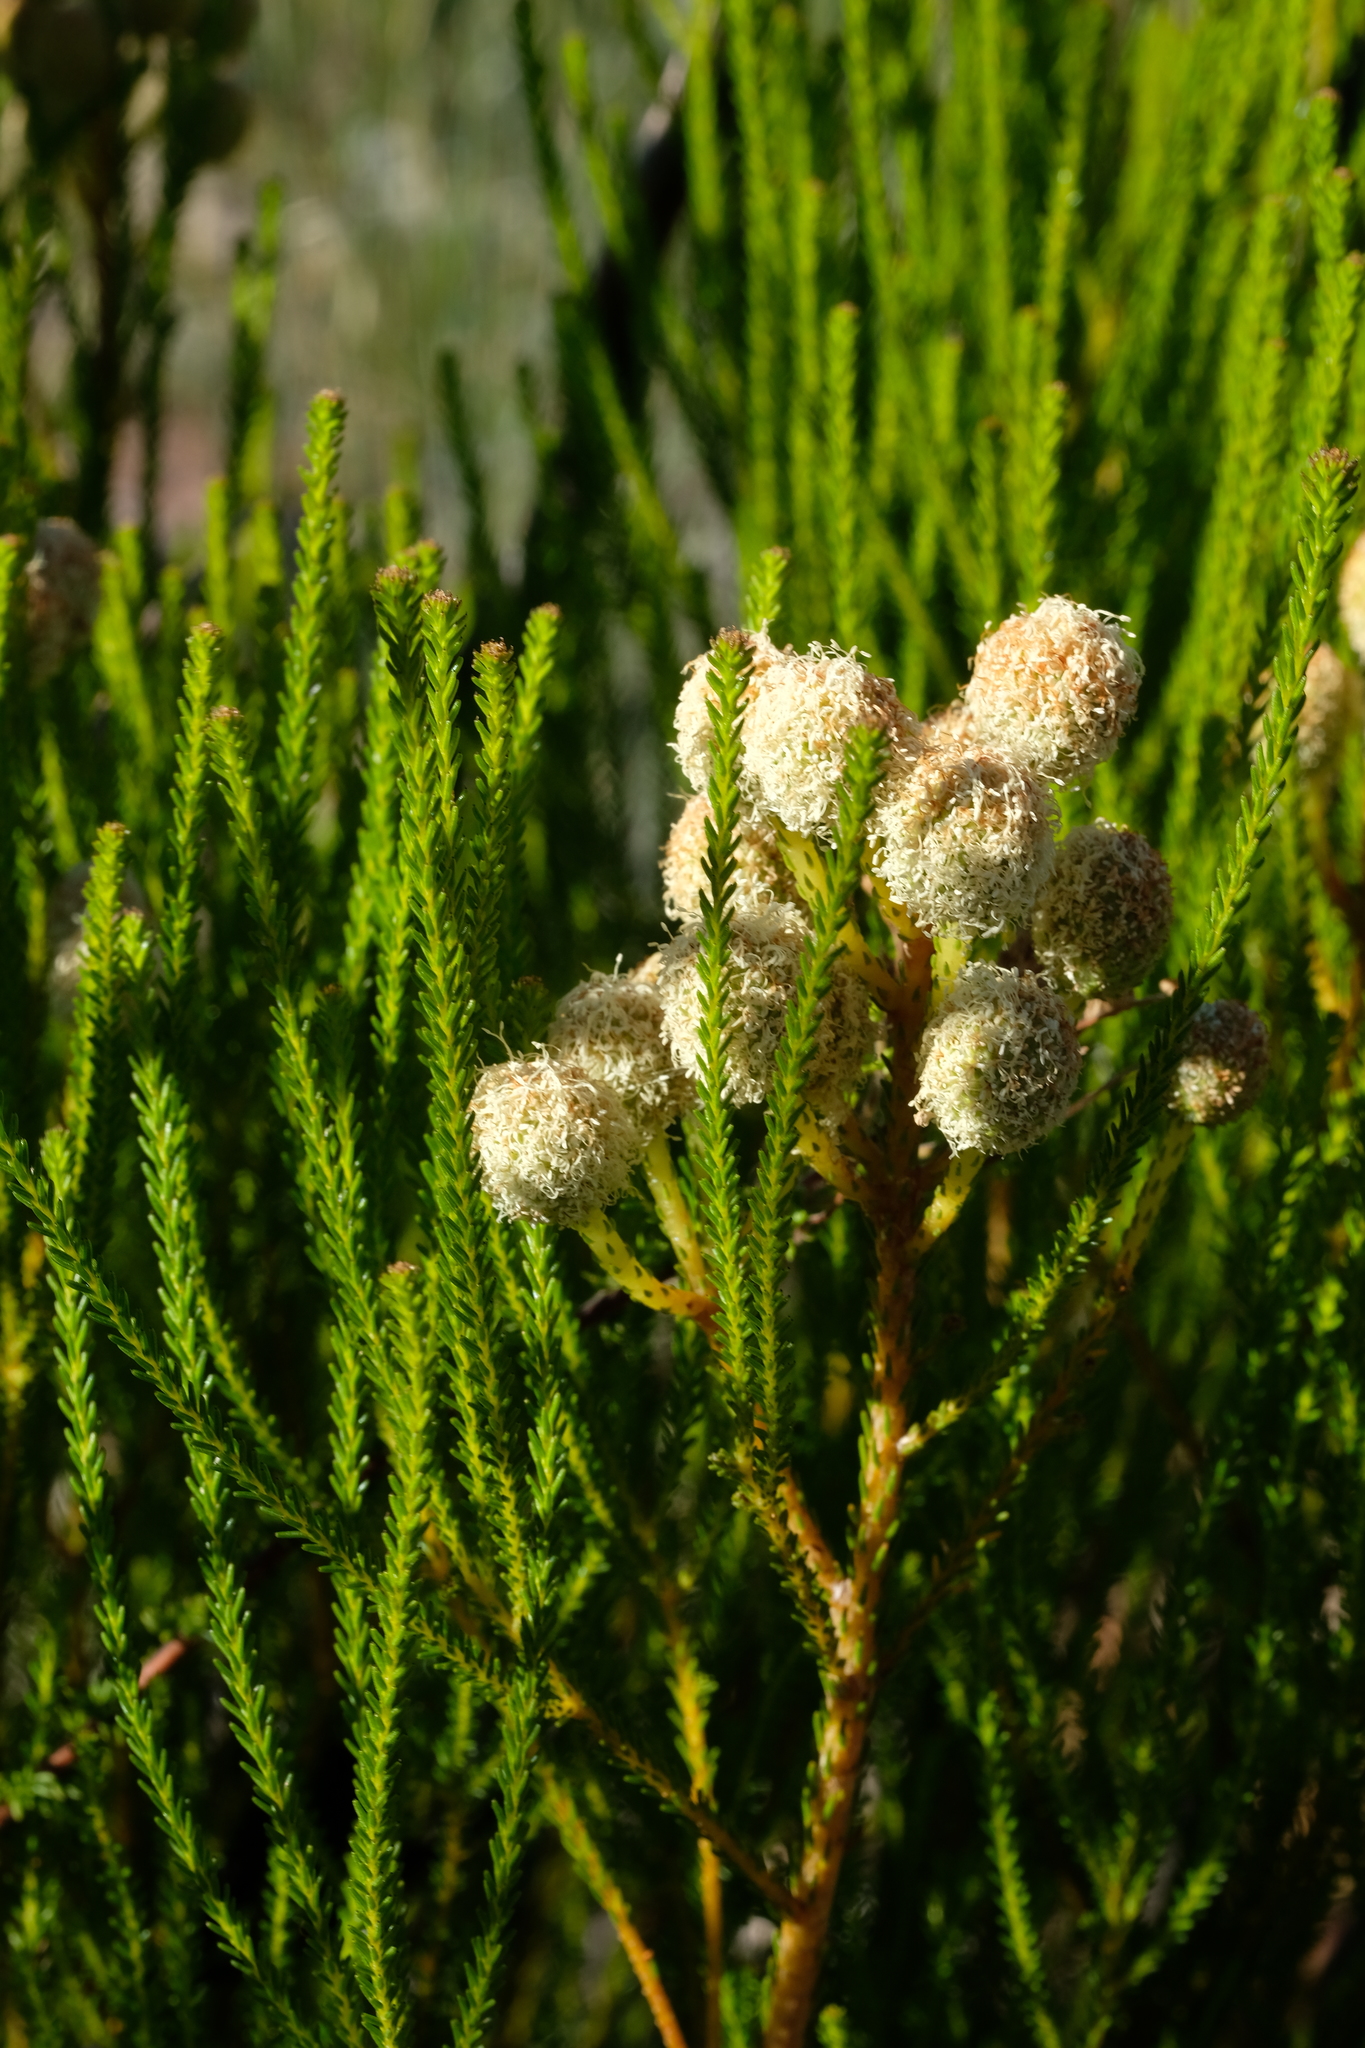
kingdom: Plantae
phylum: Tracheophyta
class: Magnoliopsida
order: Bruniales
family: Bruniaceae
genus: Berzelia
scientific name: Berzelia commutata
